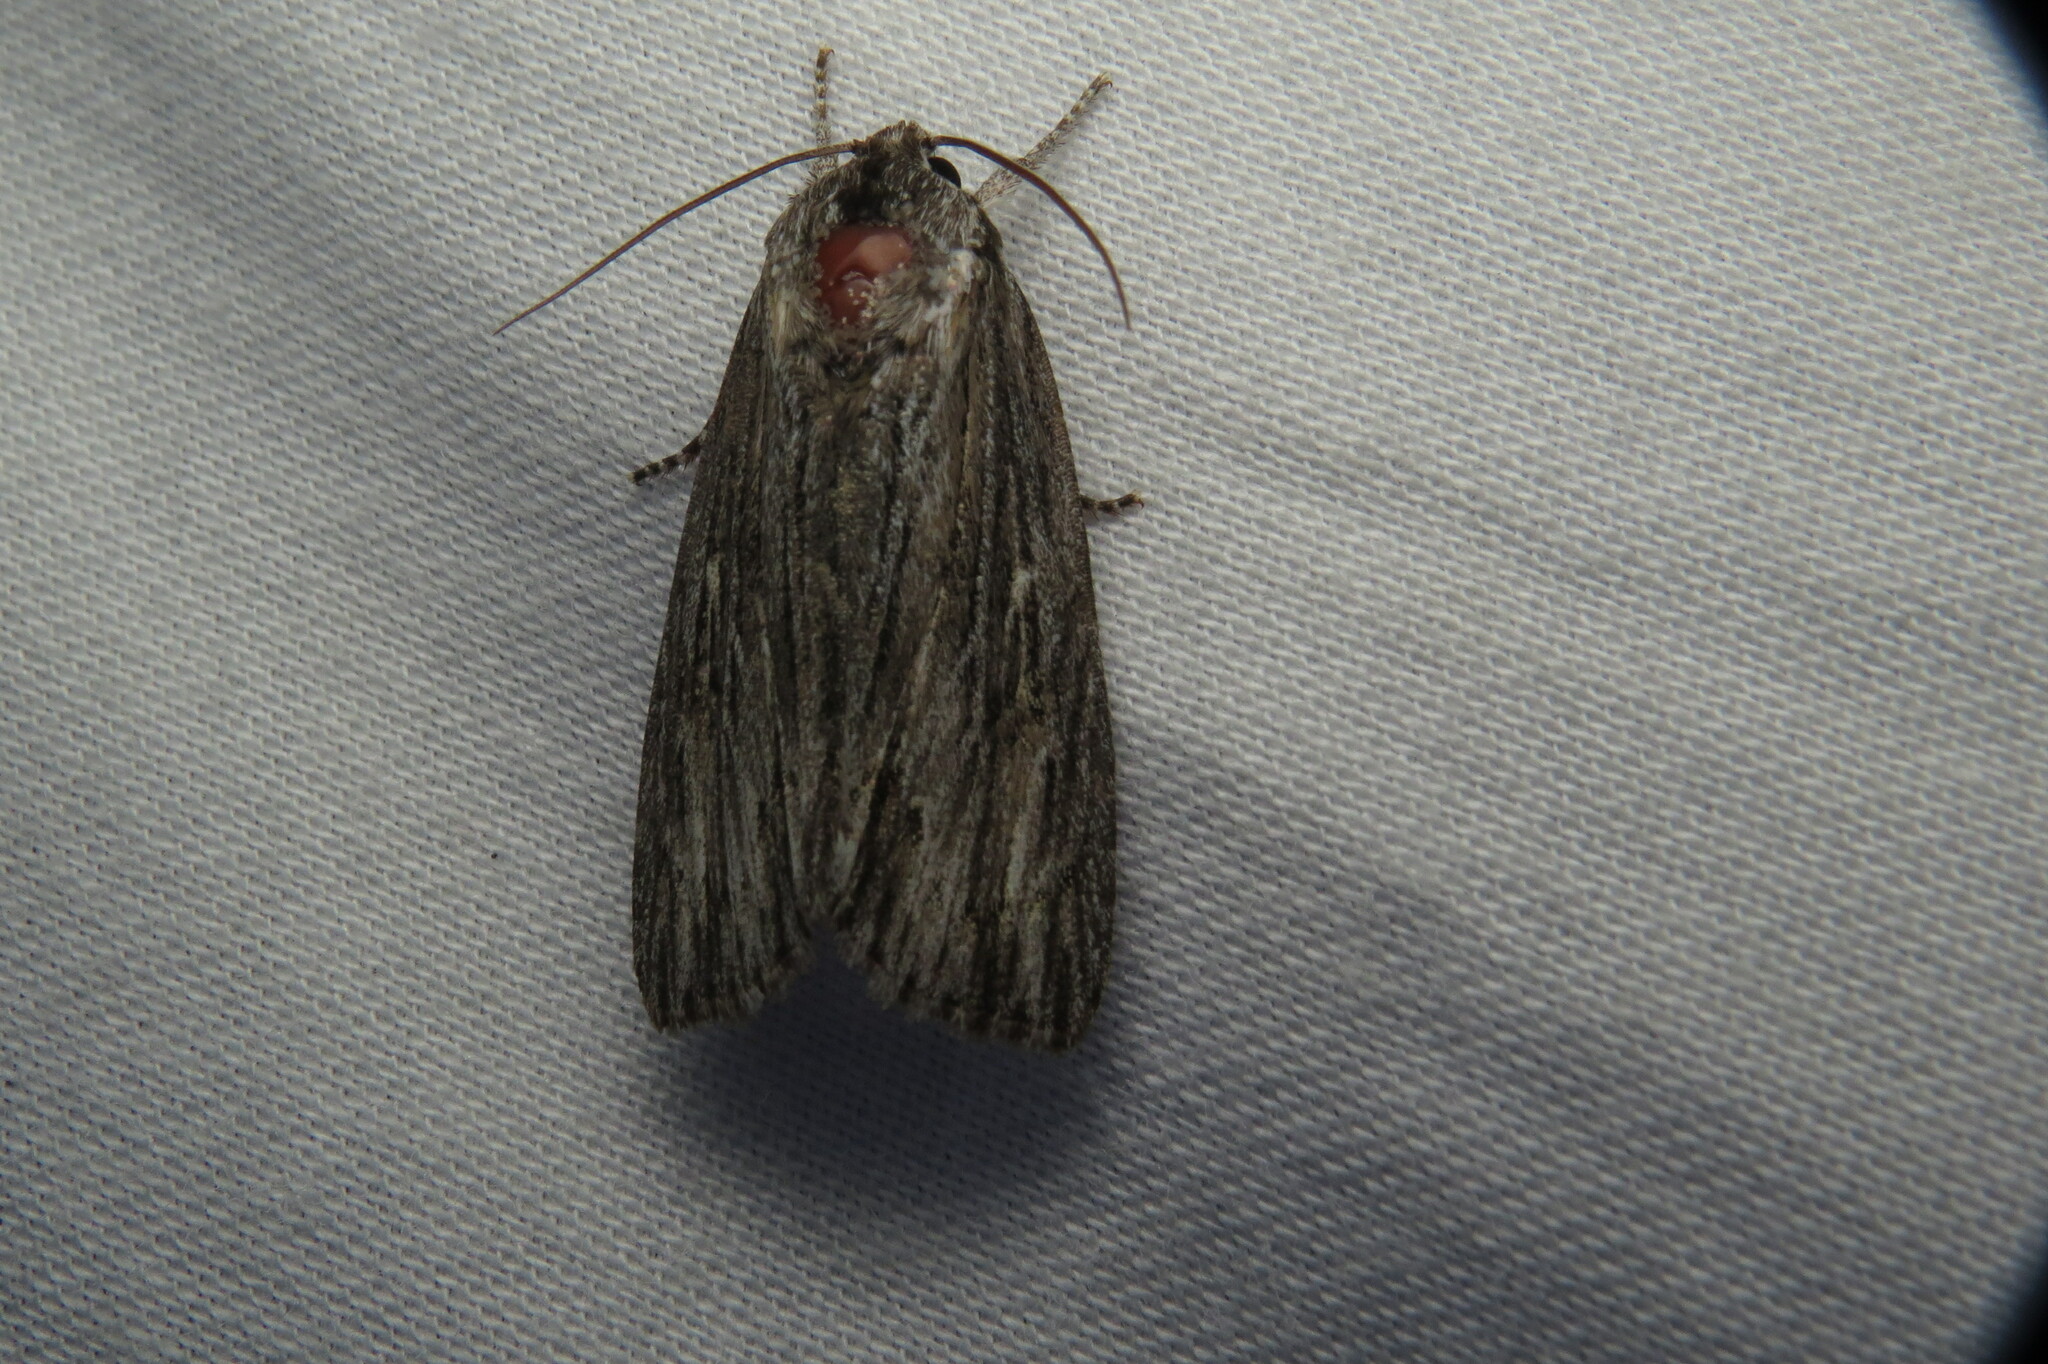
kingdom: Animalia
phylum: Arthropoda
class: Insecta
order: Lepidoptera
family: Noctuidae
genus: Acronicta
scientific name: Acronicta lithospila
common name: Streaked dagger
